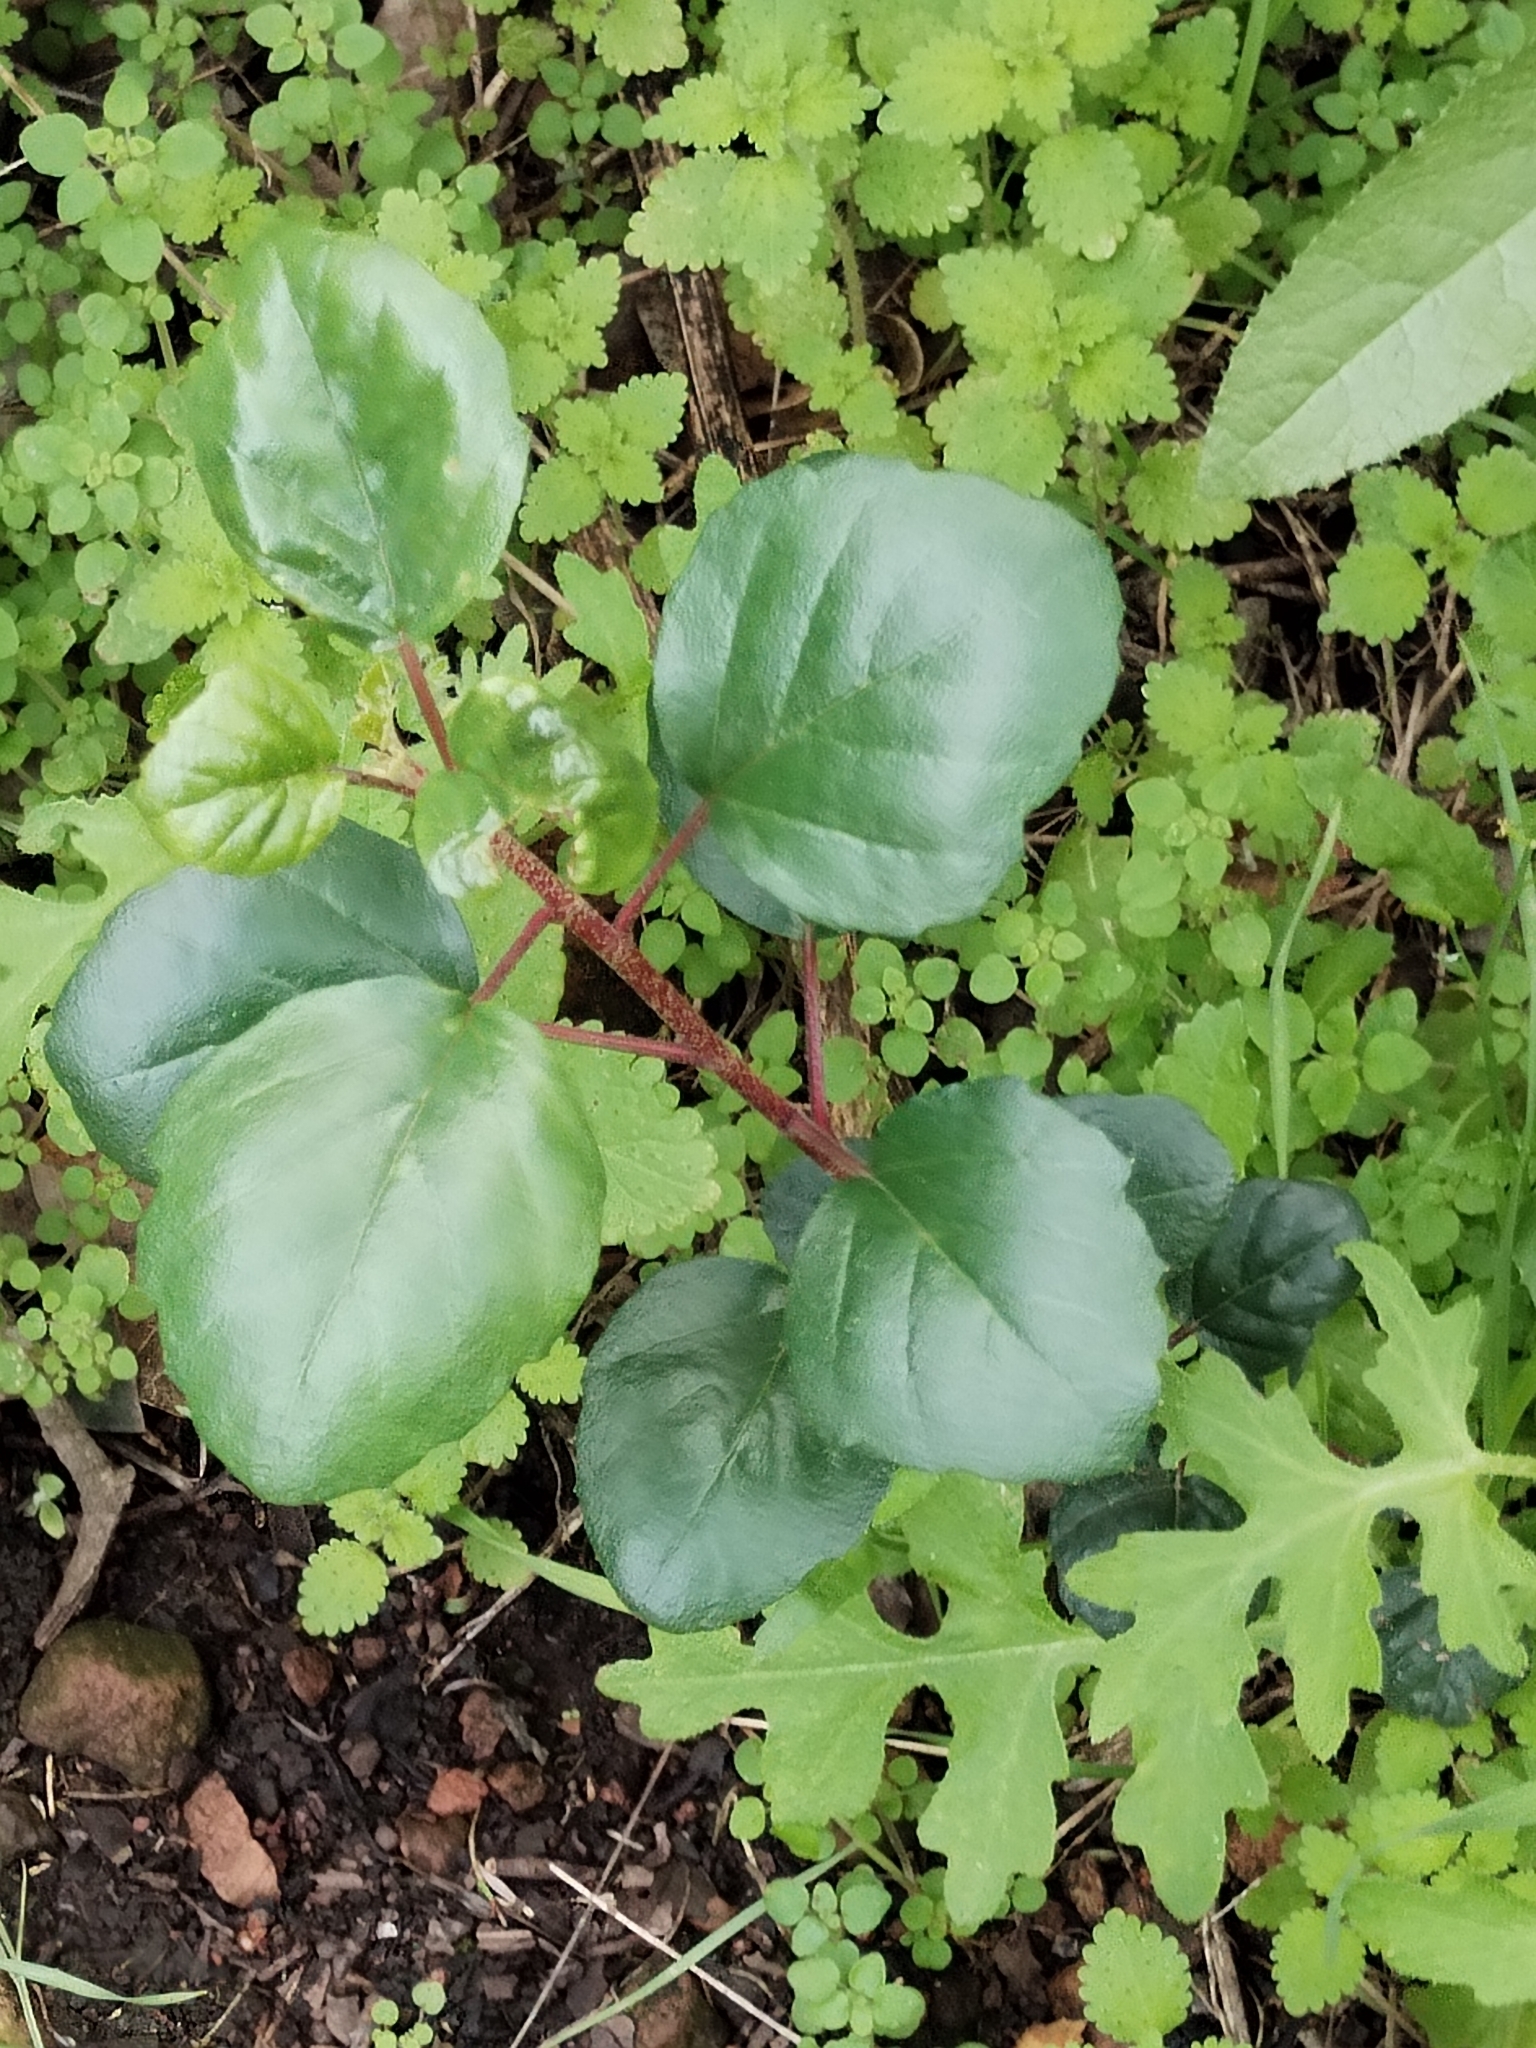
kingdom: Plantae
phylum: Tracheophyta
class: Magnoliopsida
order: Saxifragales
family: Grossulariaceae
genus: Ribes
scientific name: Ribes viburnifolium
